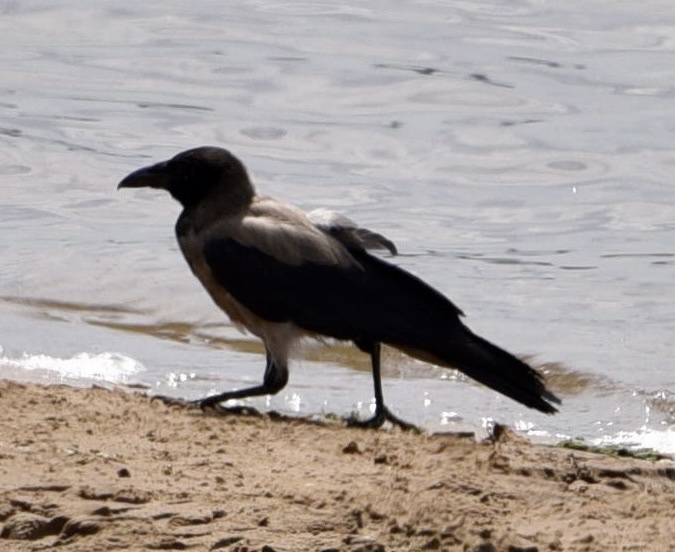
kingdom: Animalia
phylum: Chordata
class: Aves
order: Passeriformes
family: Corvidae
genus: Corvus
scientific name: Corvus cornix
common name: Hooded crow
